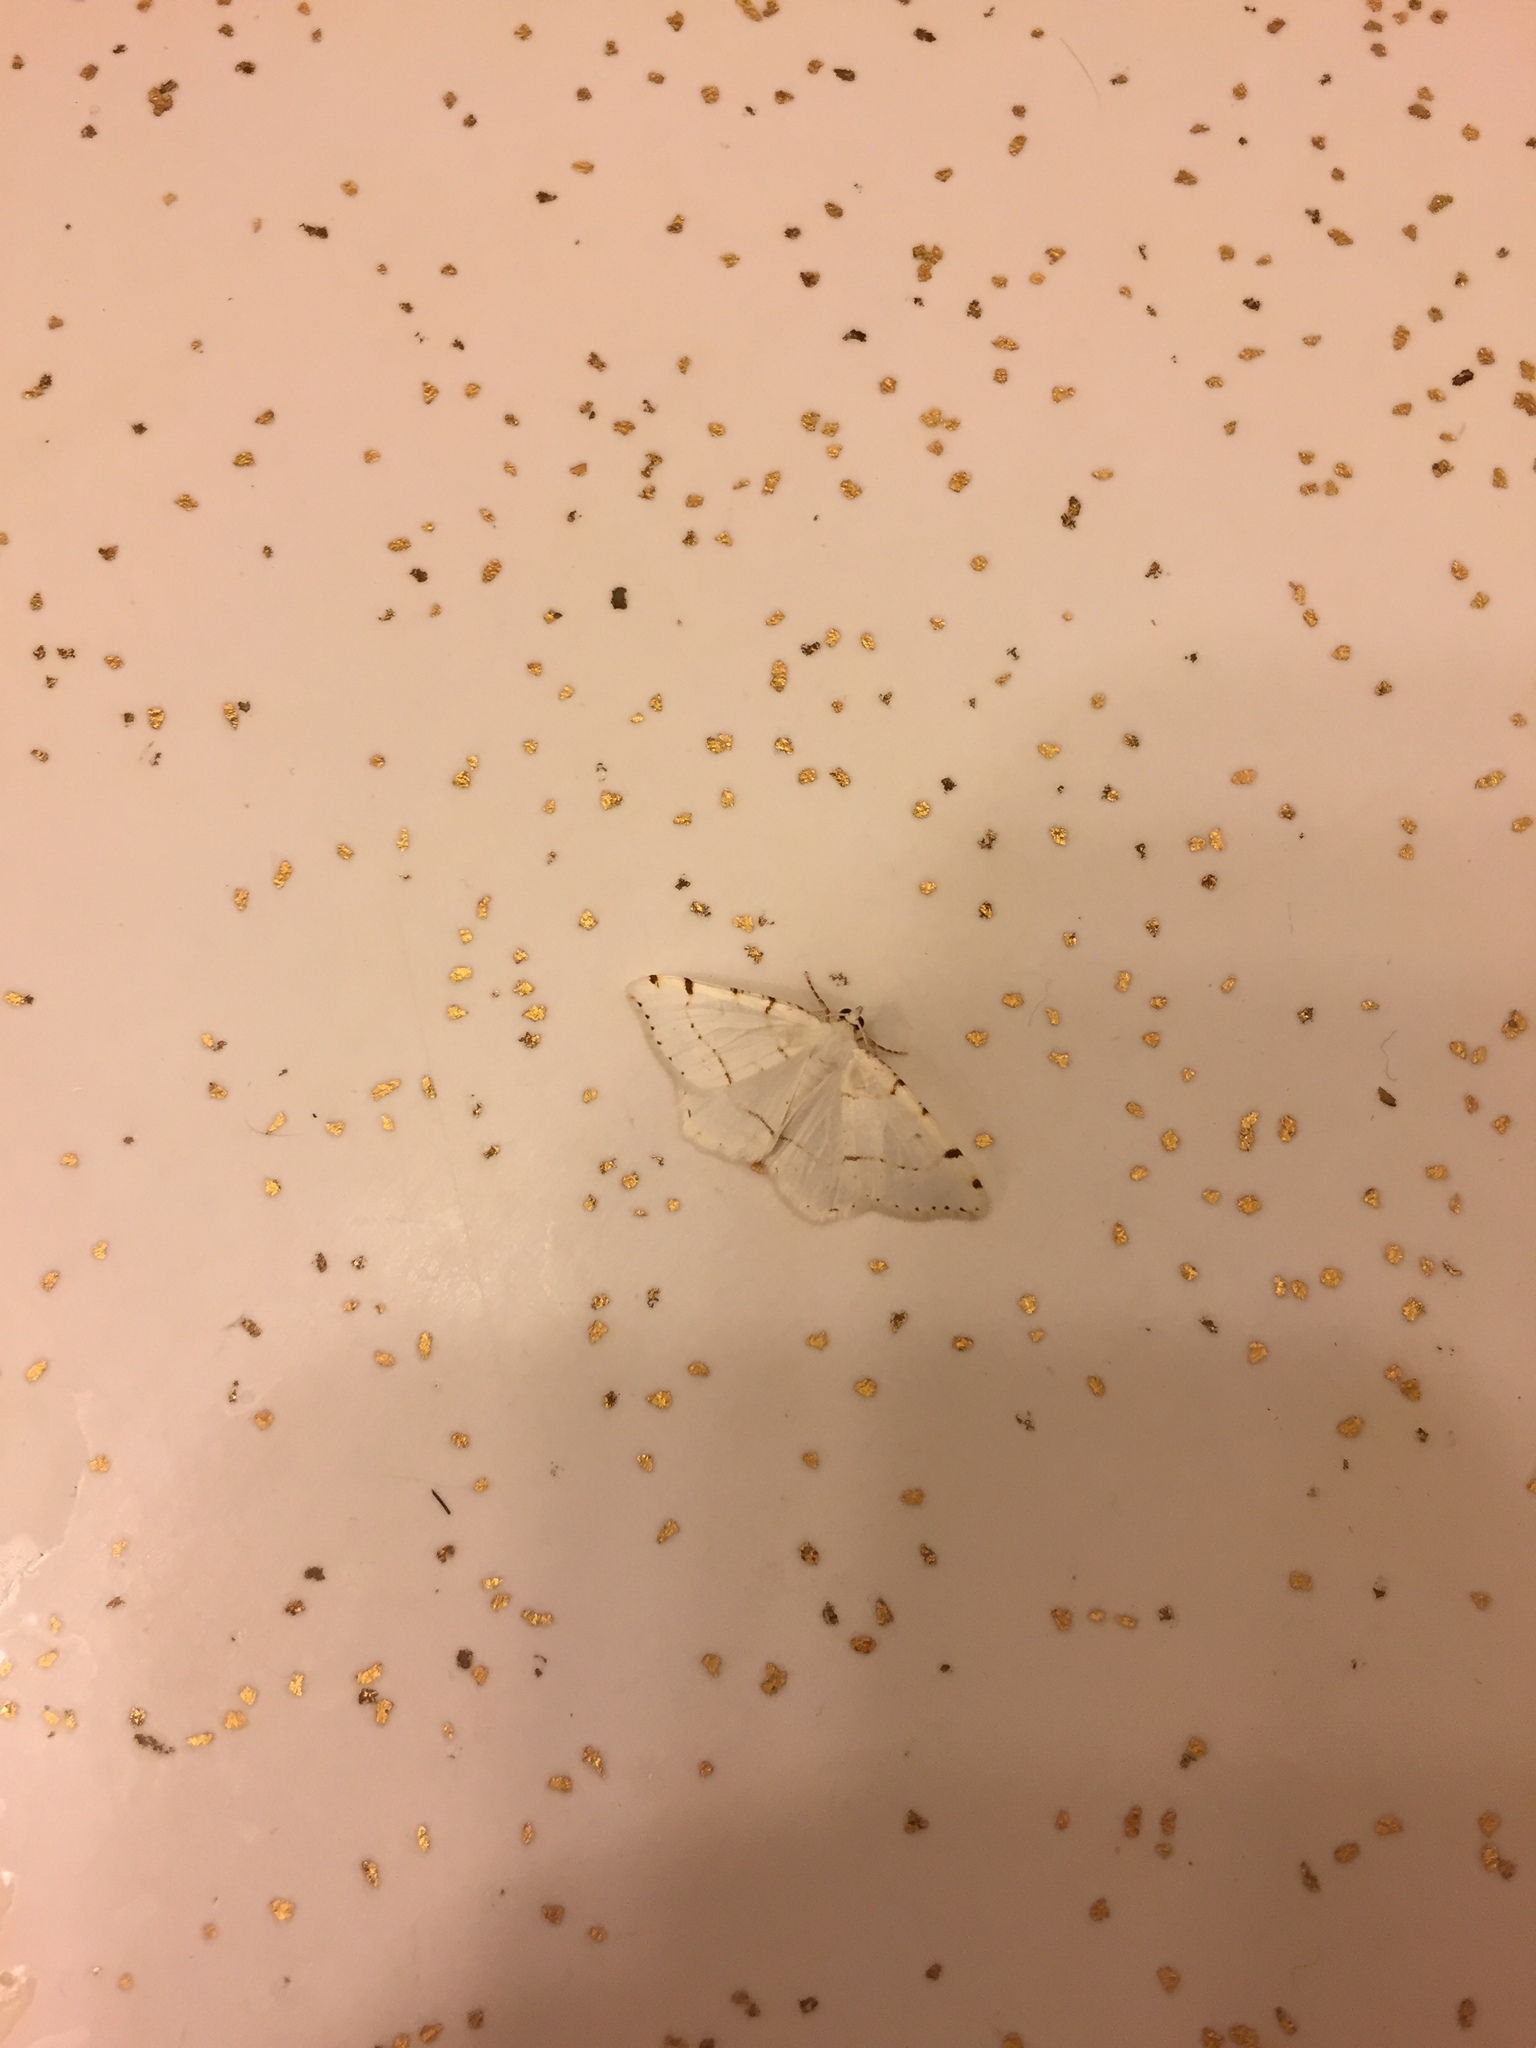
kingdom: Animalia
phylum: Arthropoda
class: Insecta
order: Lepidoptera
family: Geometridae
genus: Macaria
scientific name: Macaria pustularia
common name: Lesser maple spanworm moth
